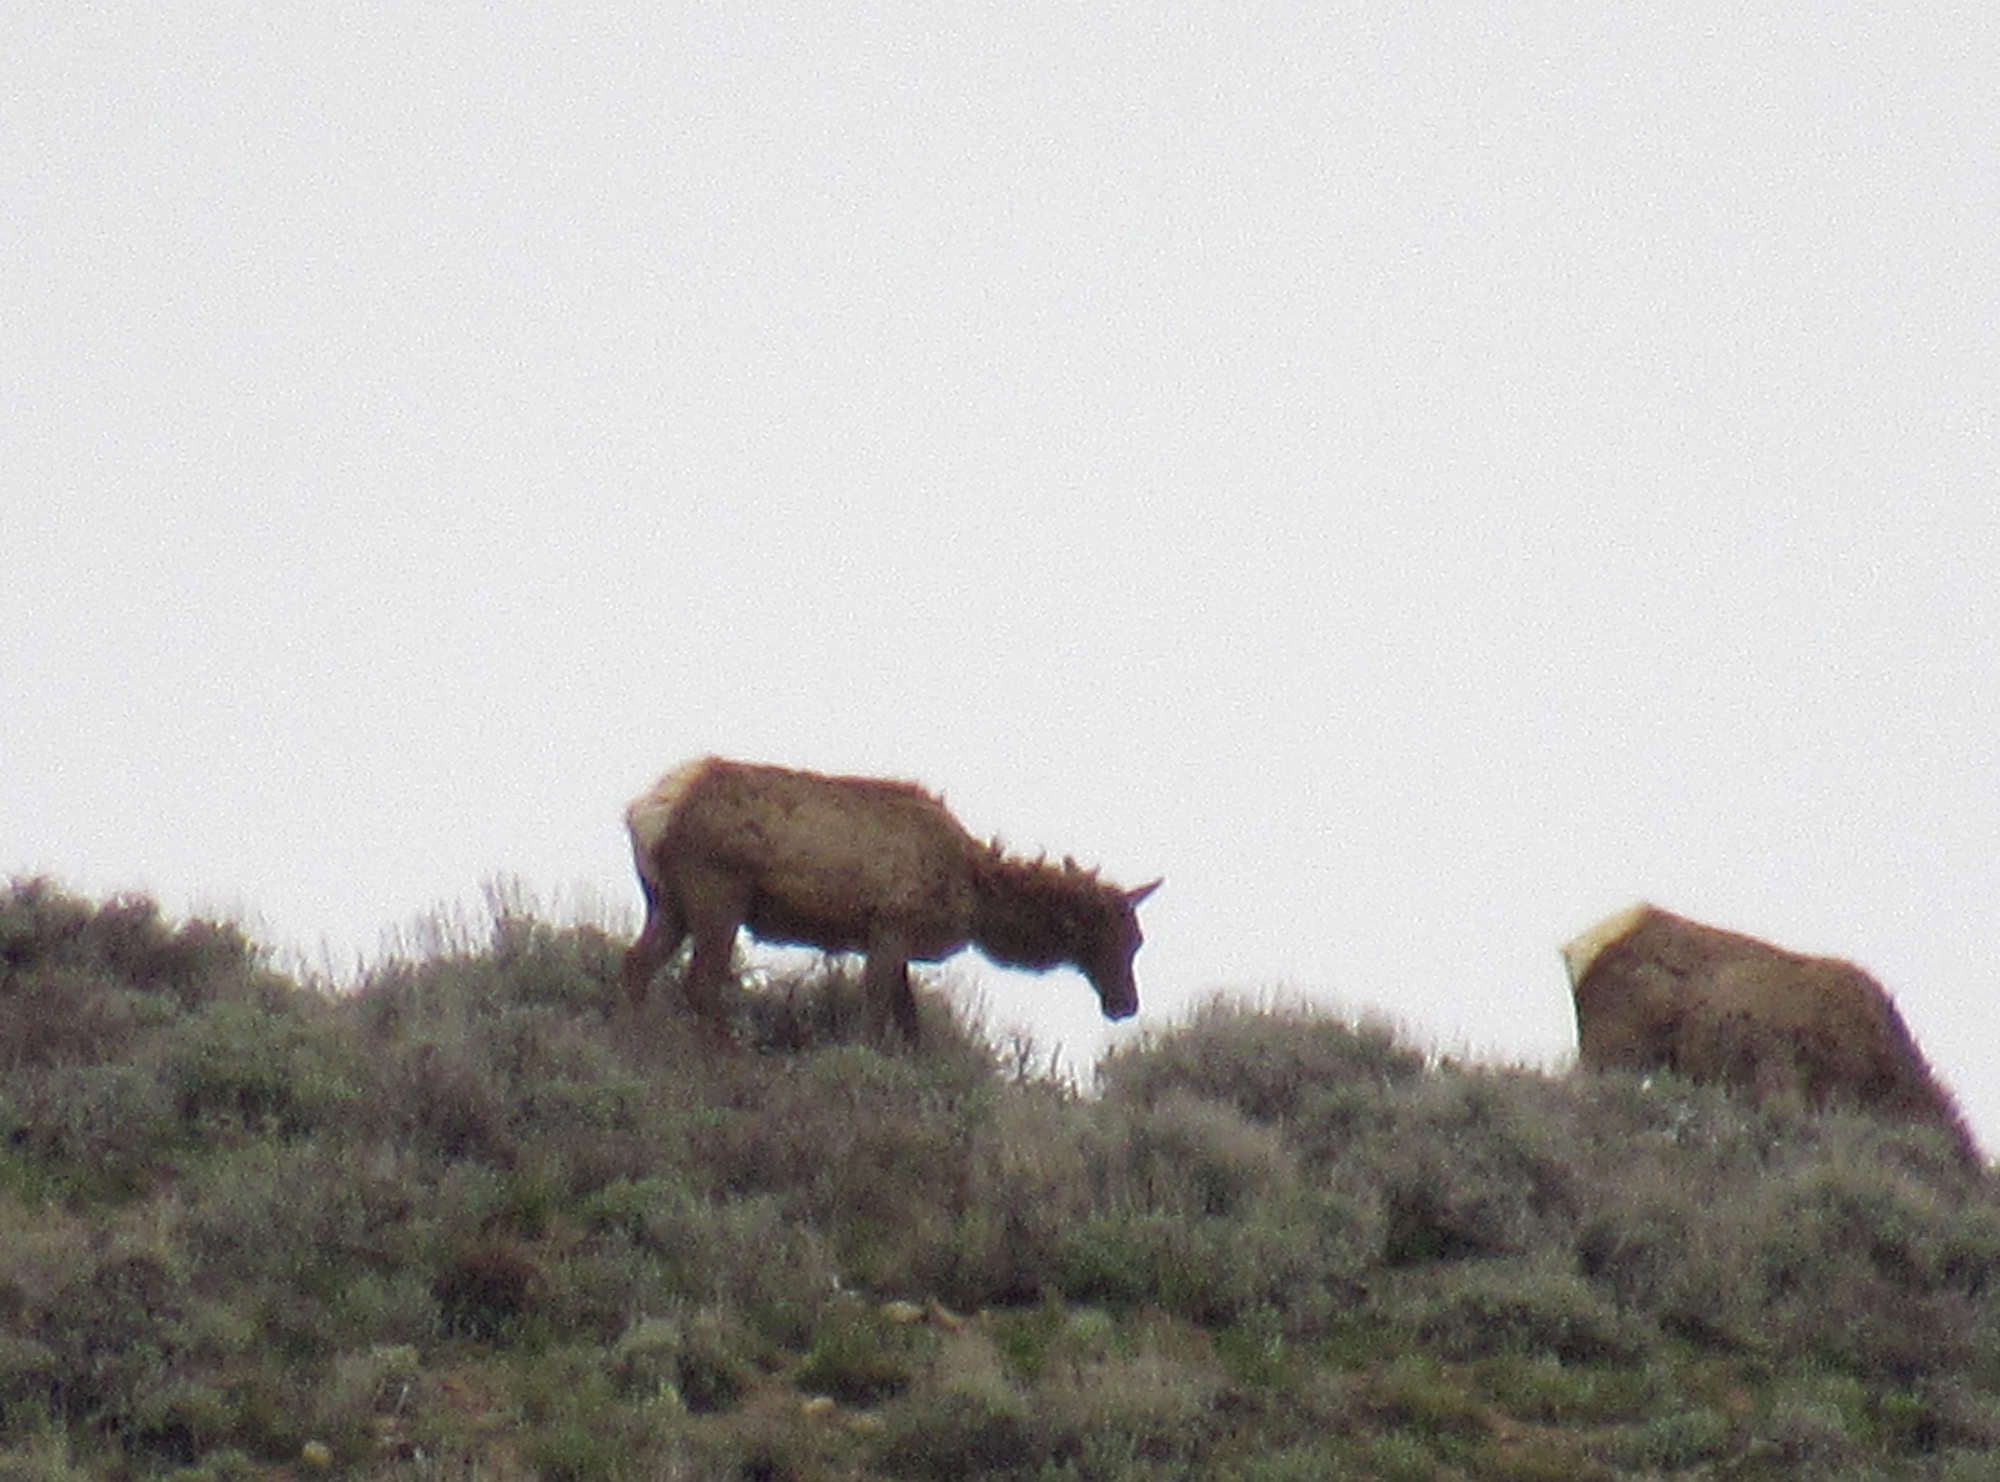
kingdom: Animalia
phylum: Chordata
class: Mammalia
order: Artiodactyla
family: Cervidae
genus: Cervus
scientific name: Cervus elaphus
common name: Red deer
